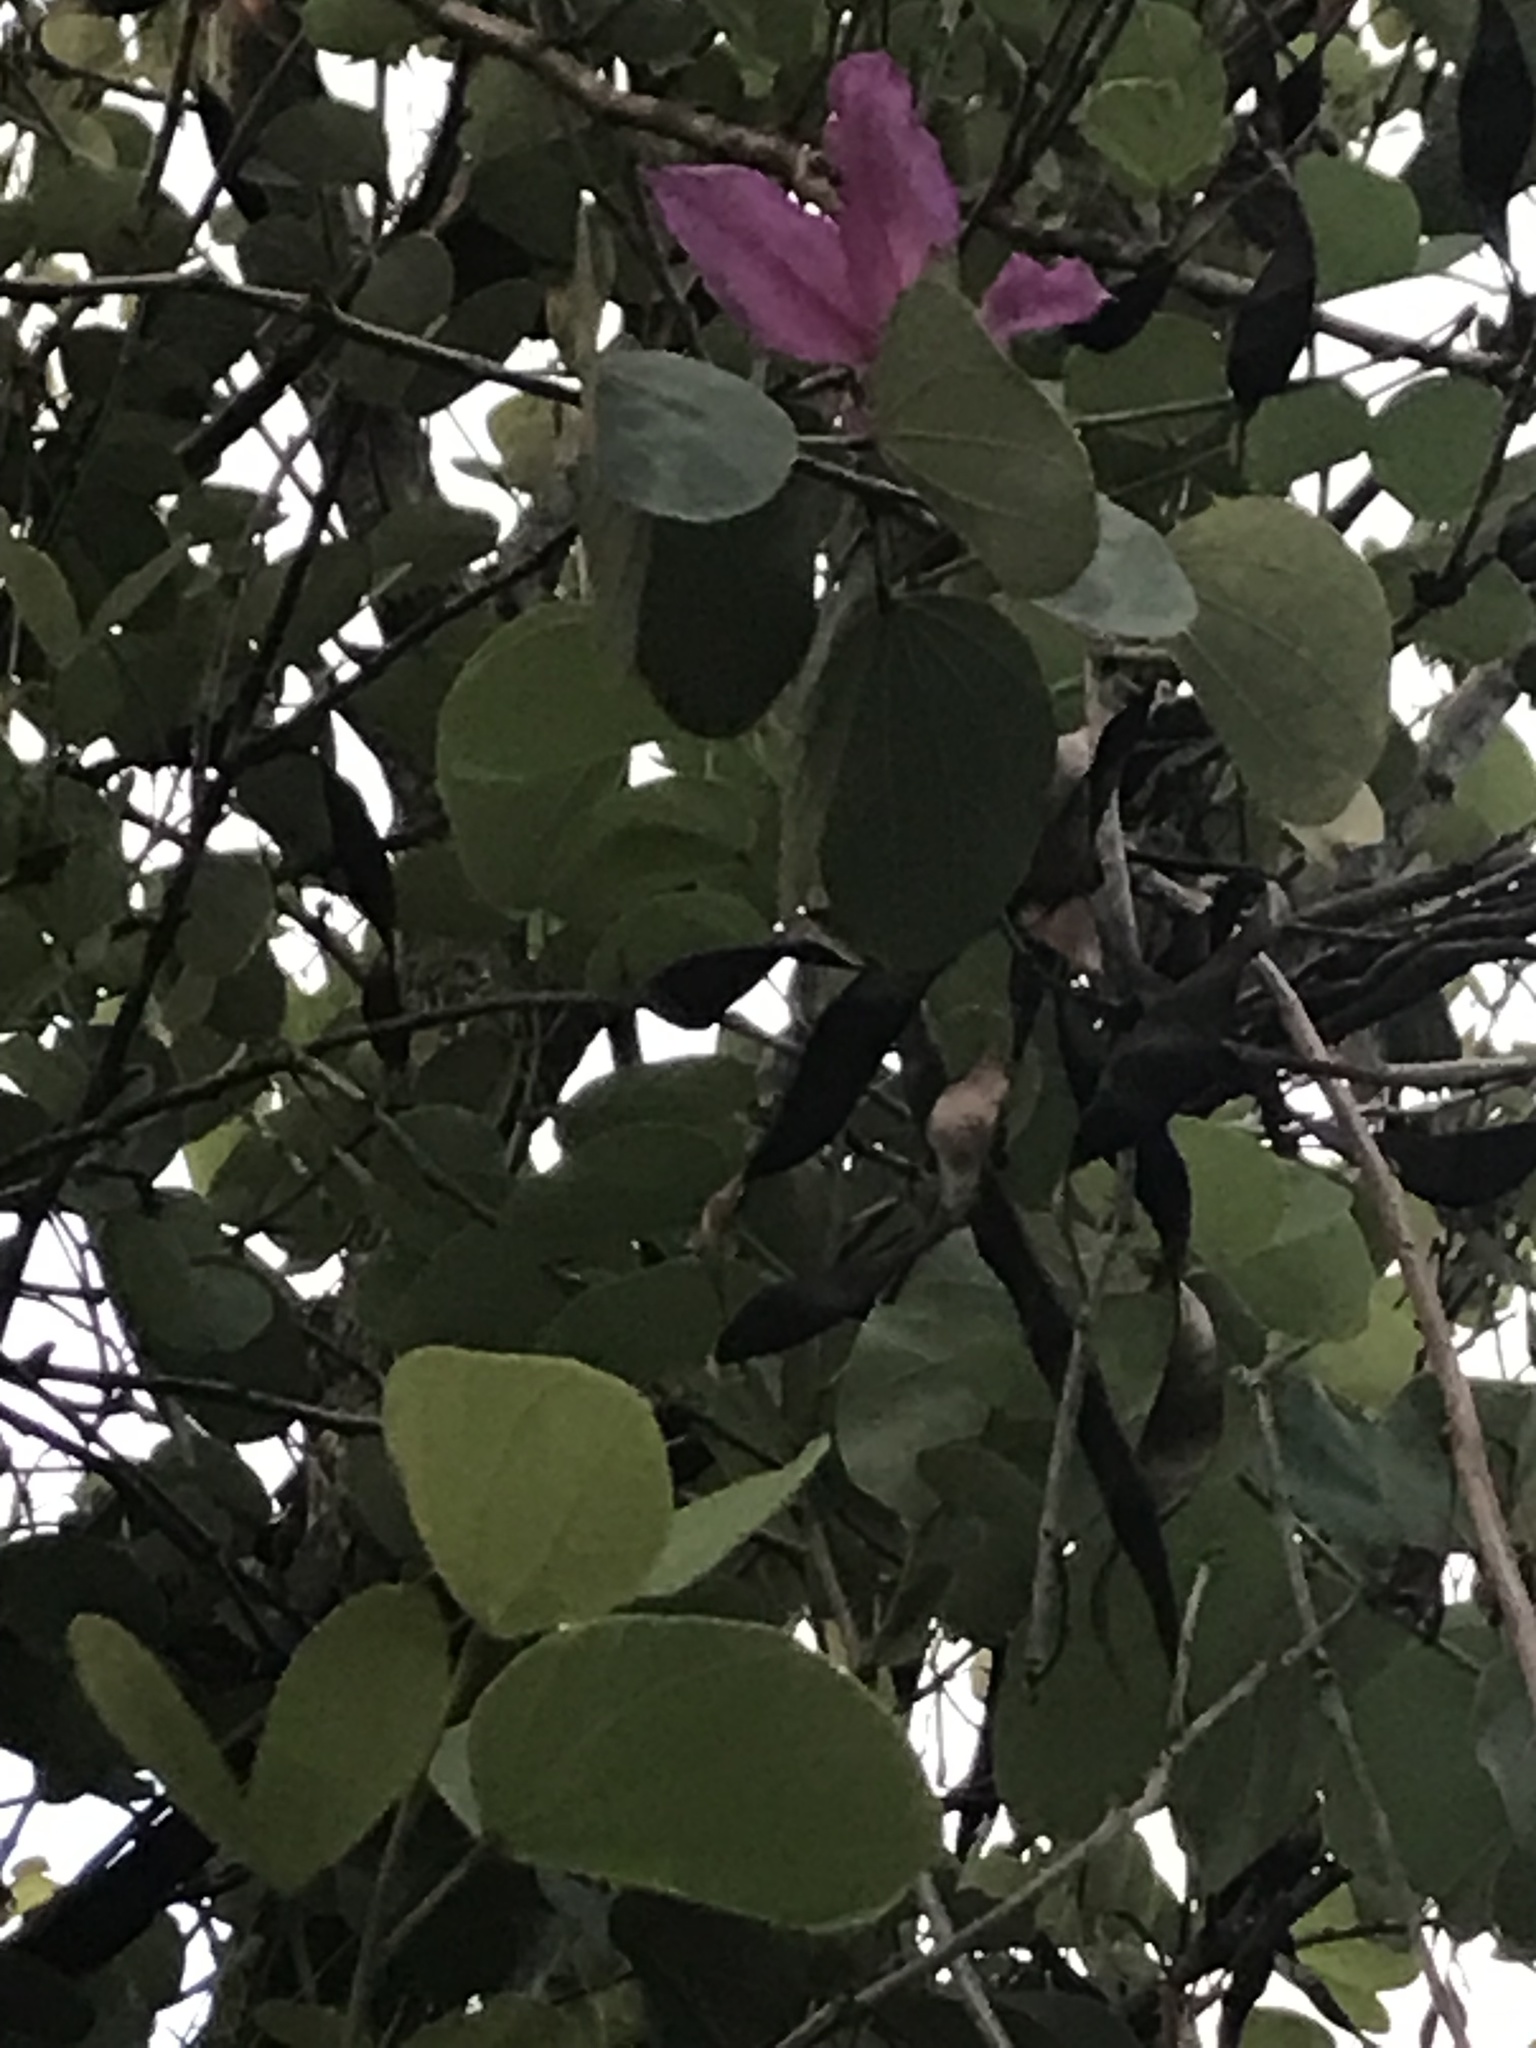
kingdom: Plantae
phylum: Tracheophyta
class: Magnoliopsida
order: Fabales
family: Fabaceae
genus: Bauhinia
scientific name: Bauhinia variegata
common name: Mountain ebony
